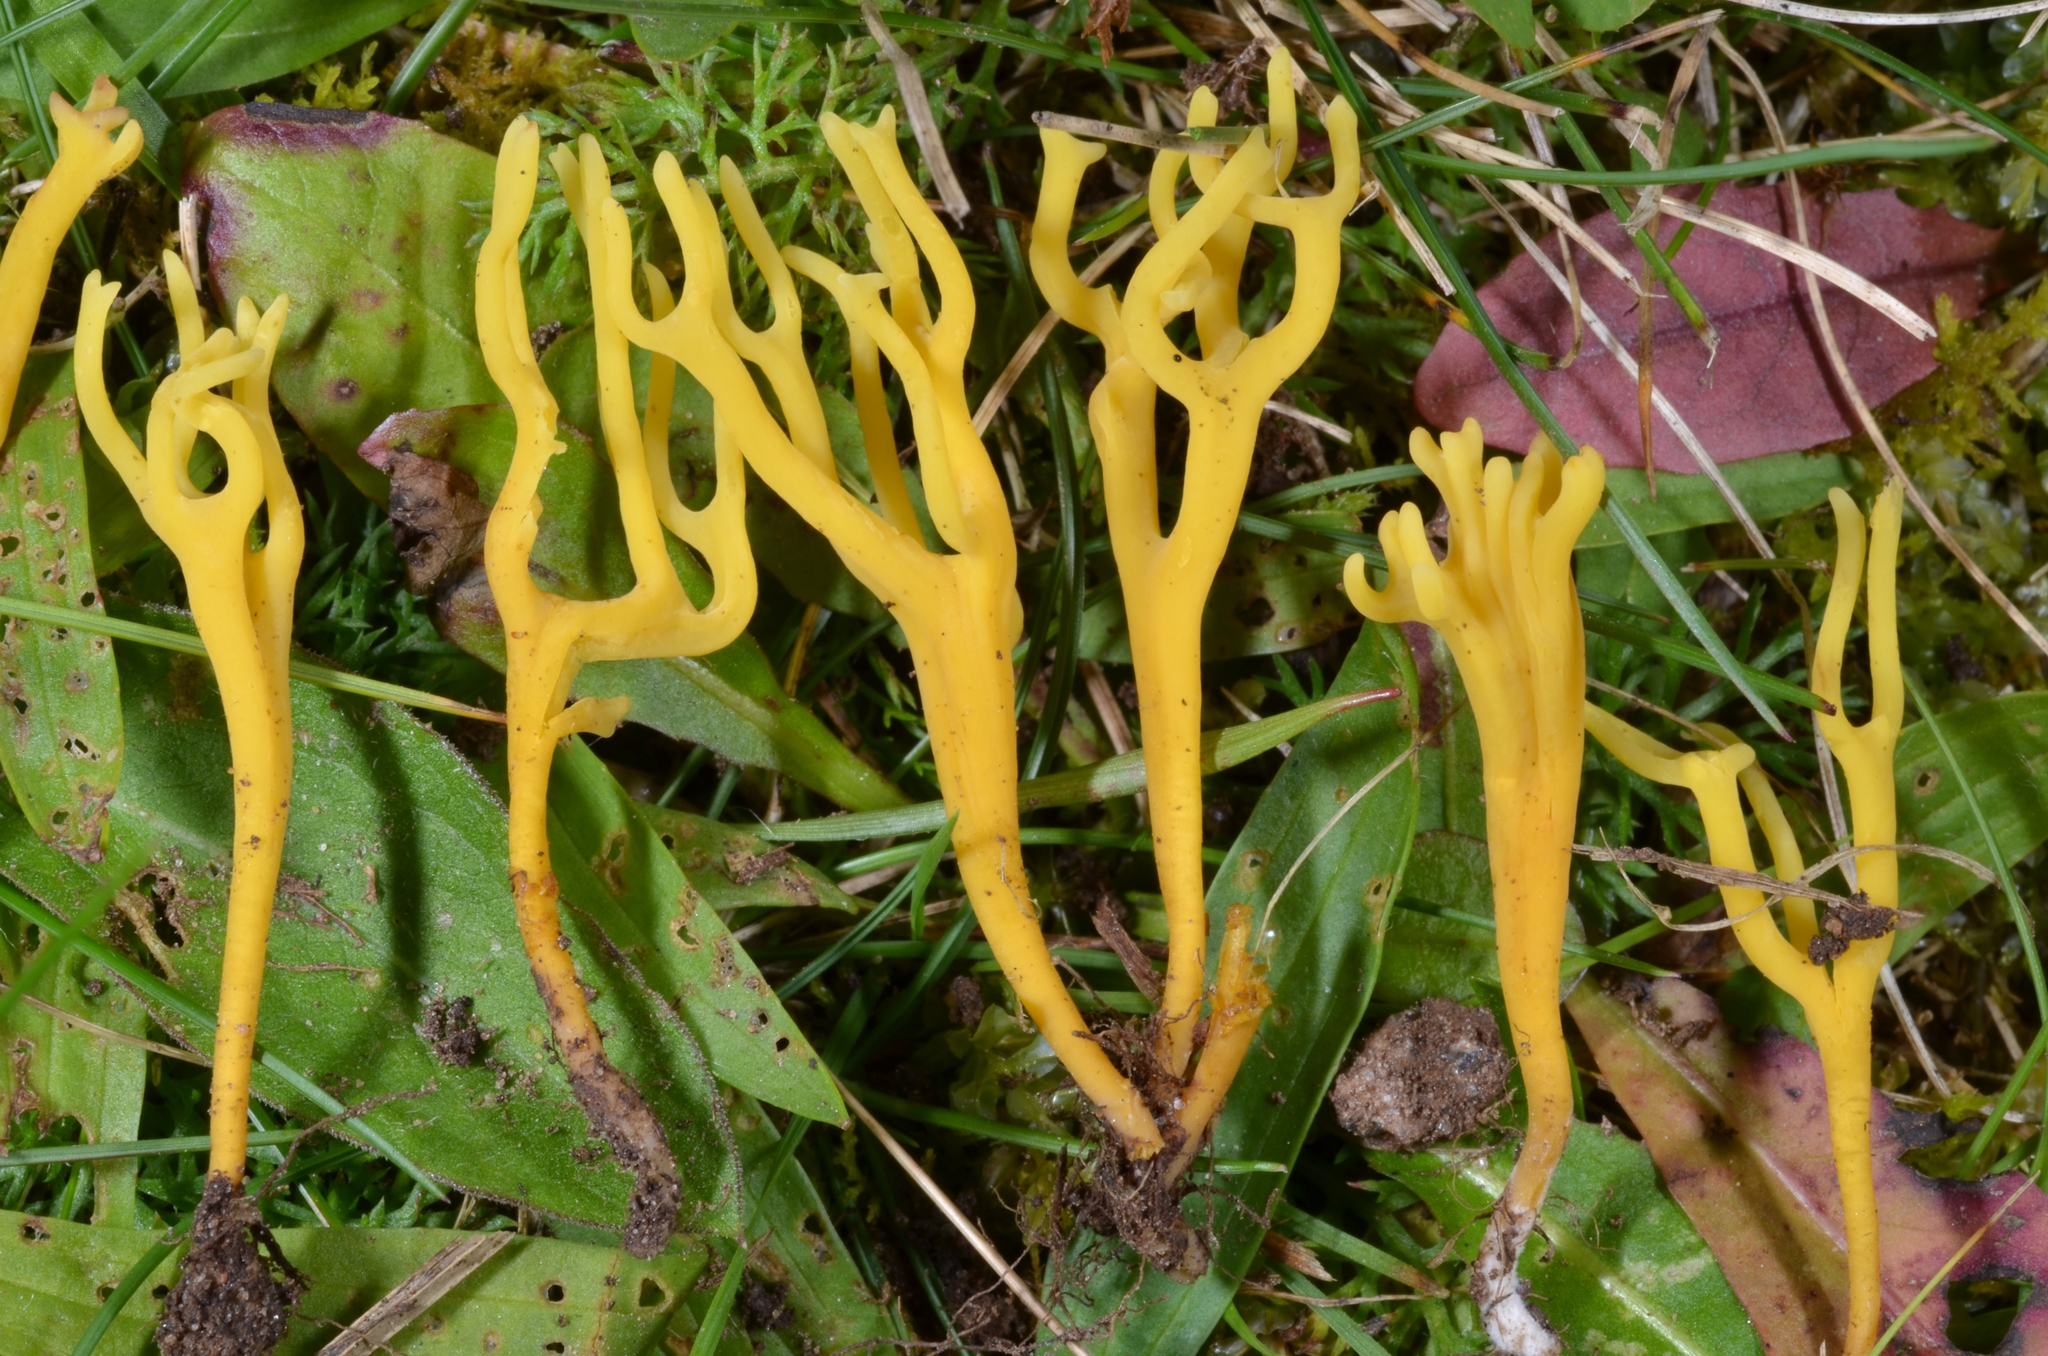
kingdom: Fungi
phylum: Basidiomycota
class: Agaricomycetes
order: Agaricales
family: Clavariaceae
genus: Clavulinopsis
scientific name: Clavulinopsis corniculata
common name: Meadow coral
